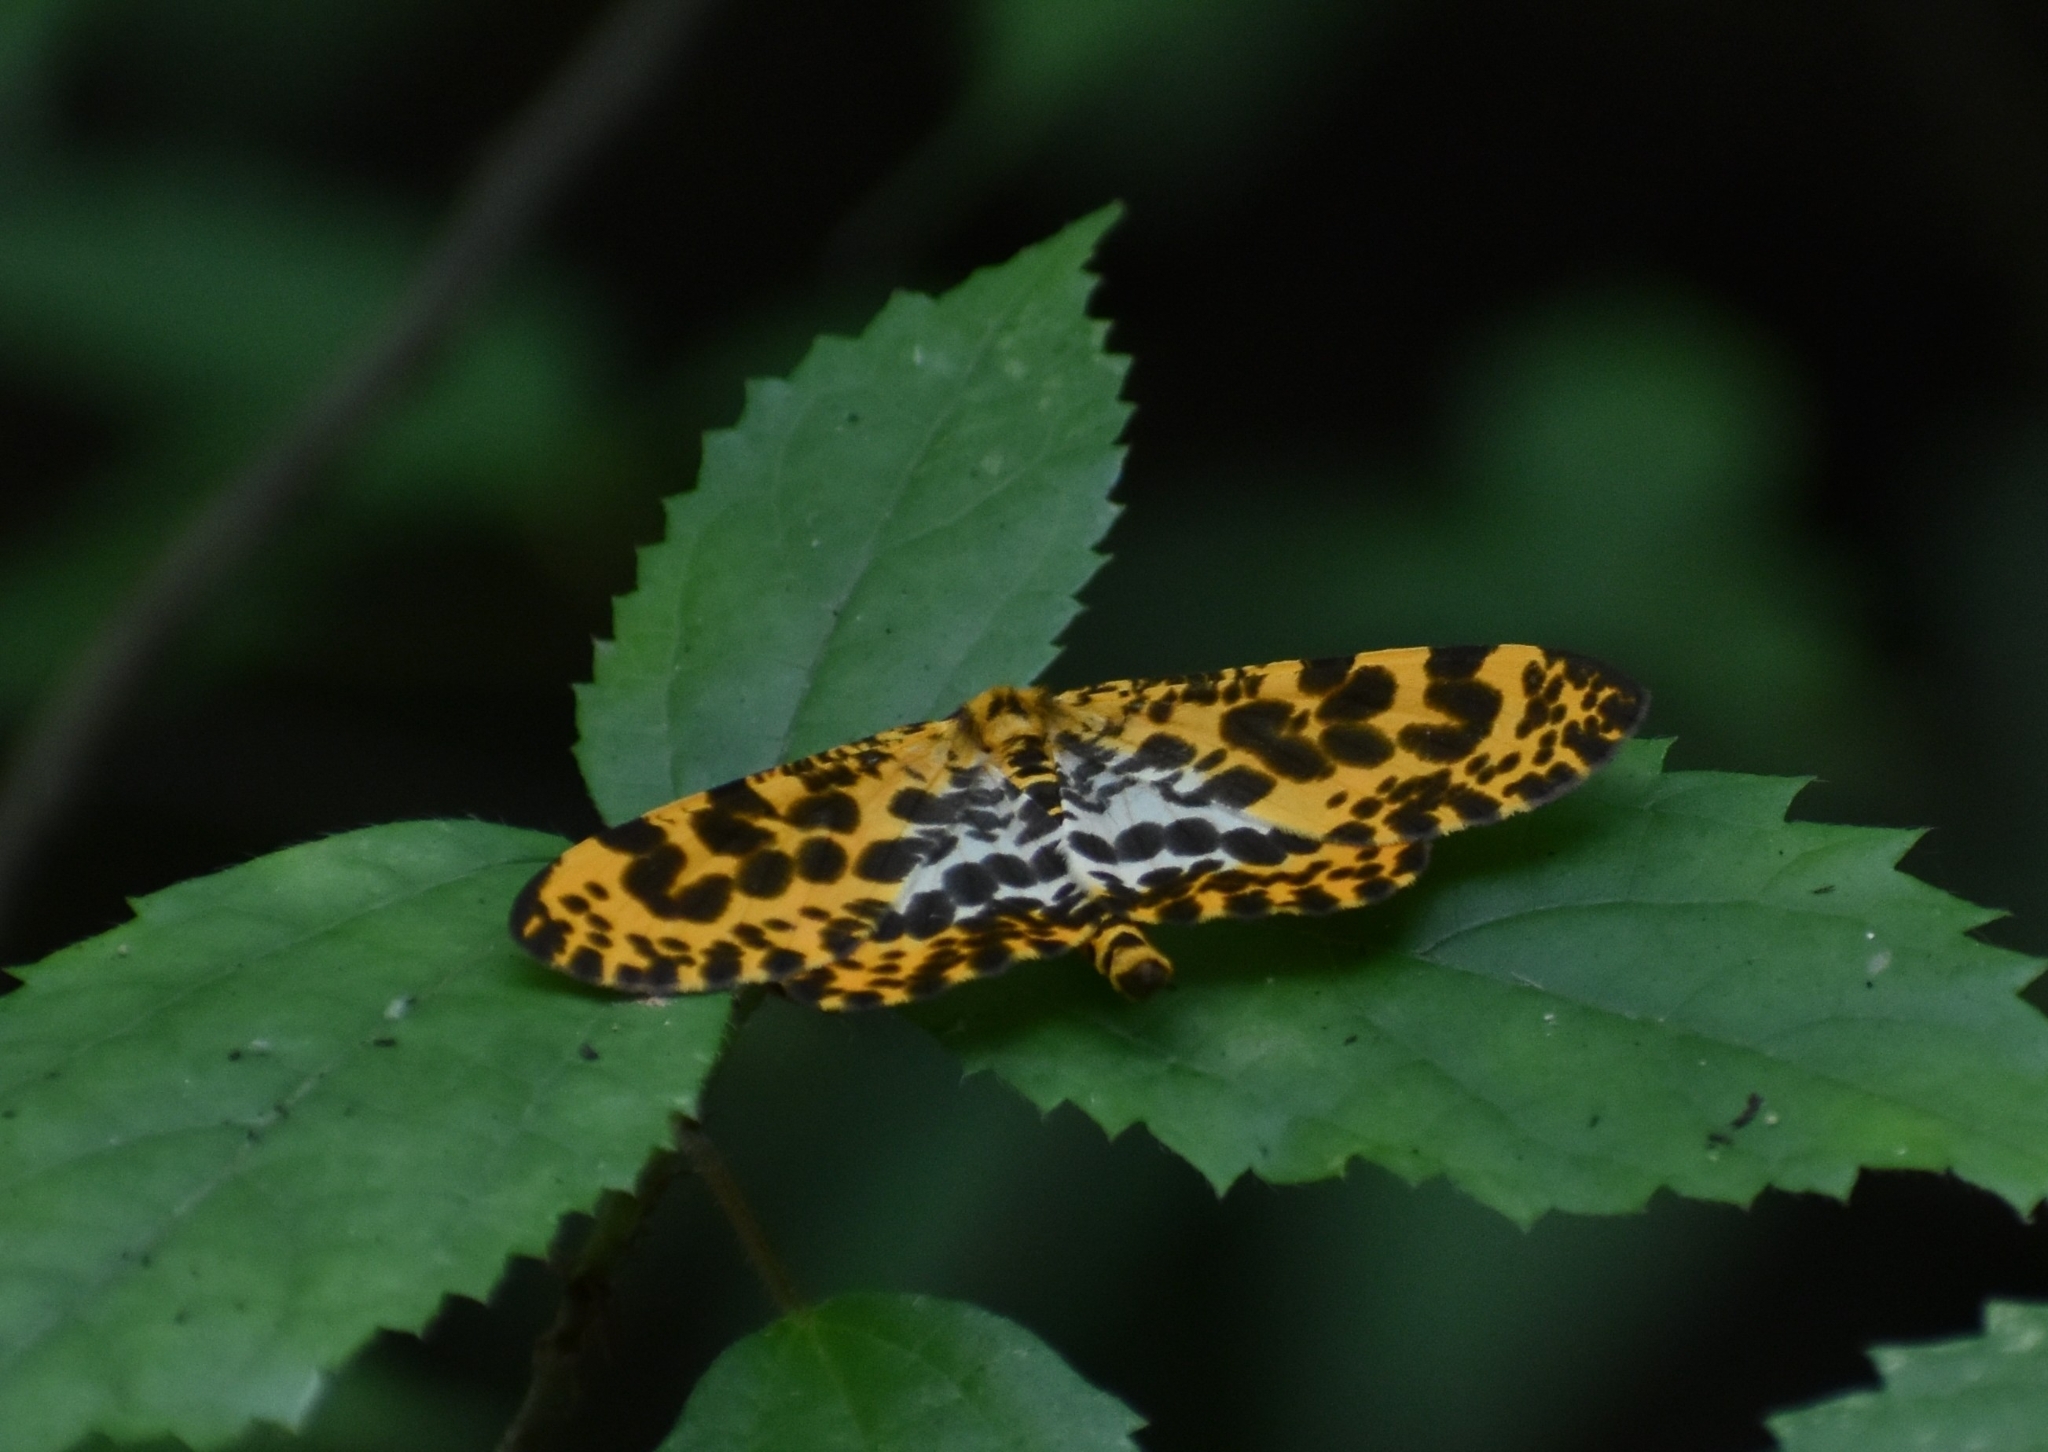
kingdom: Animalia
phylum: Arthropoda
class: Insecta
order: Lepidoptera
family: Geometridae
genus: Obeidia
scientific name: Obeidia Epobeidia tigrata
